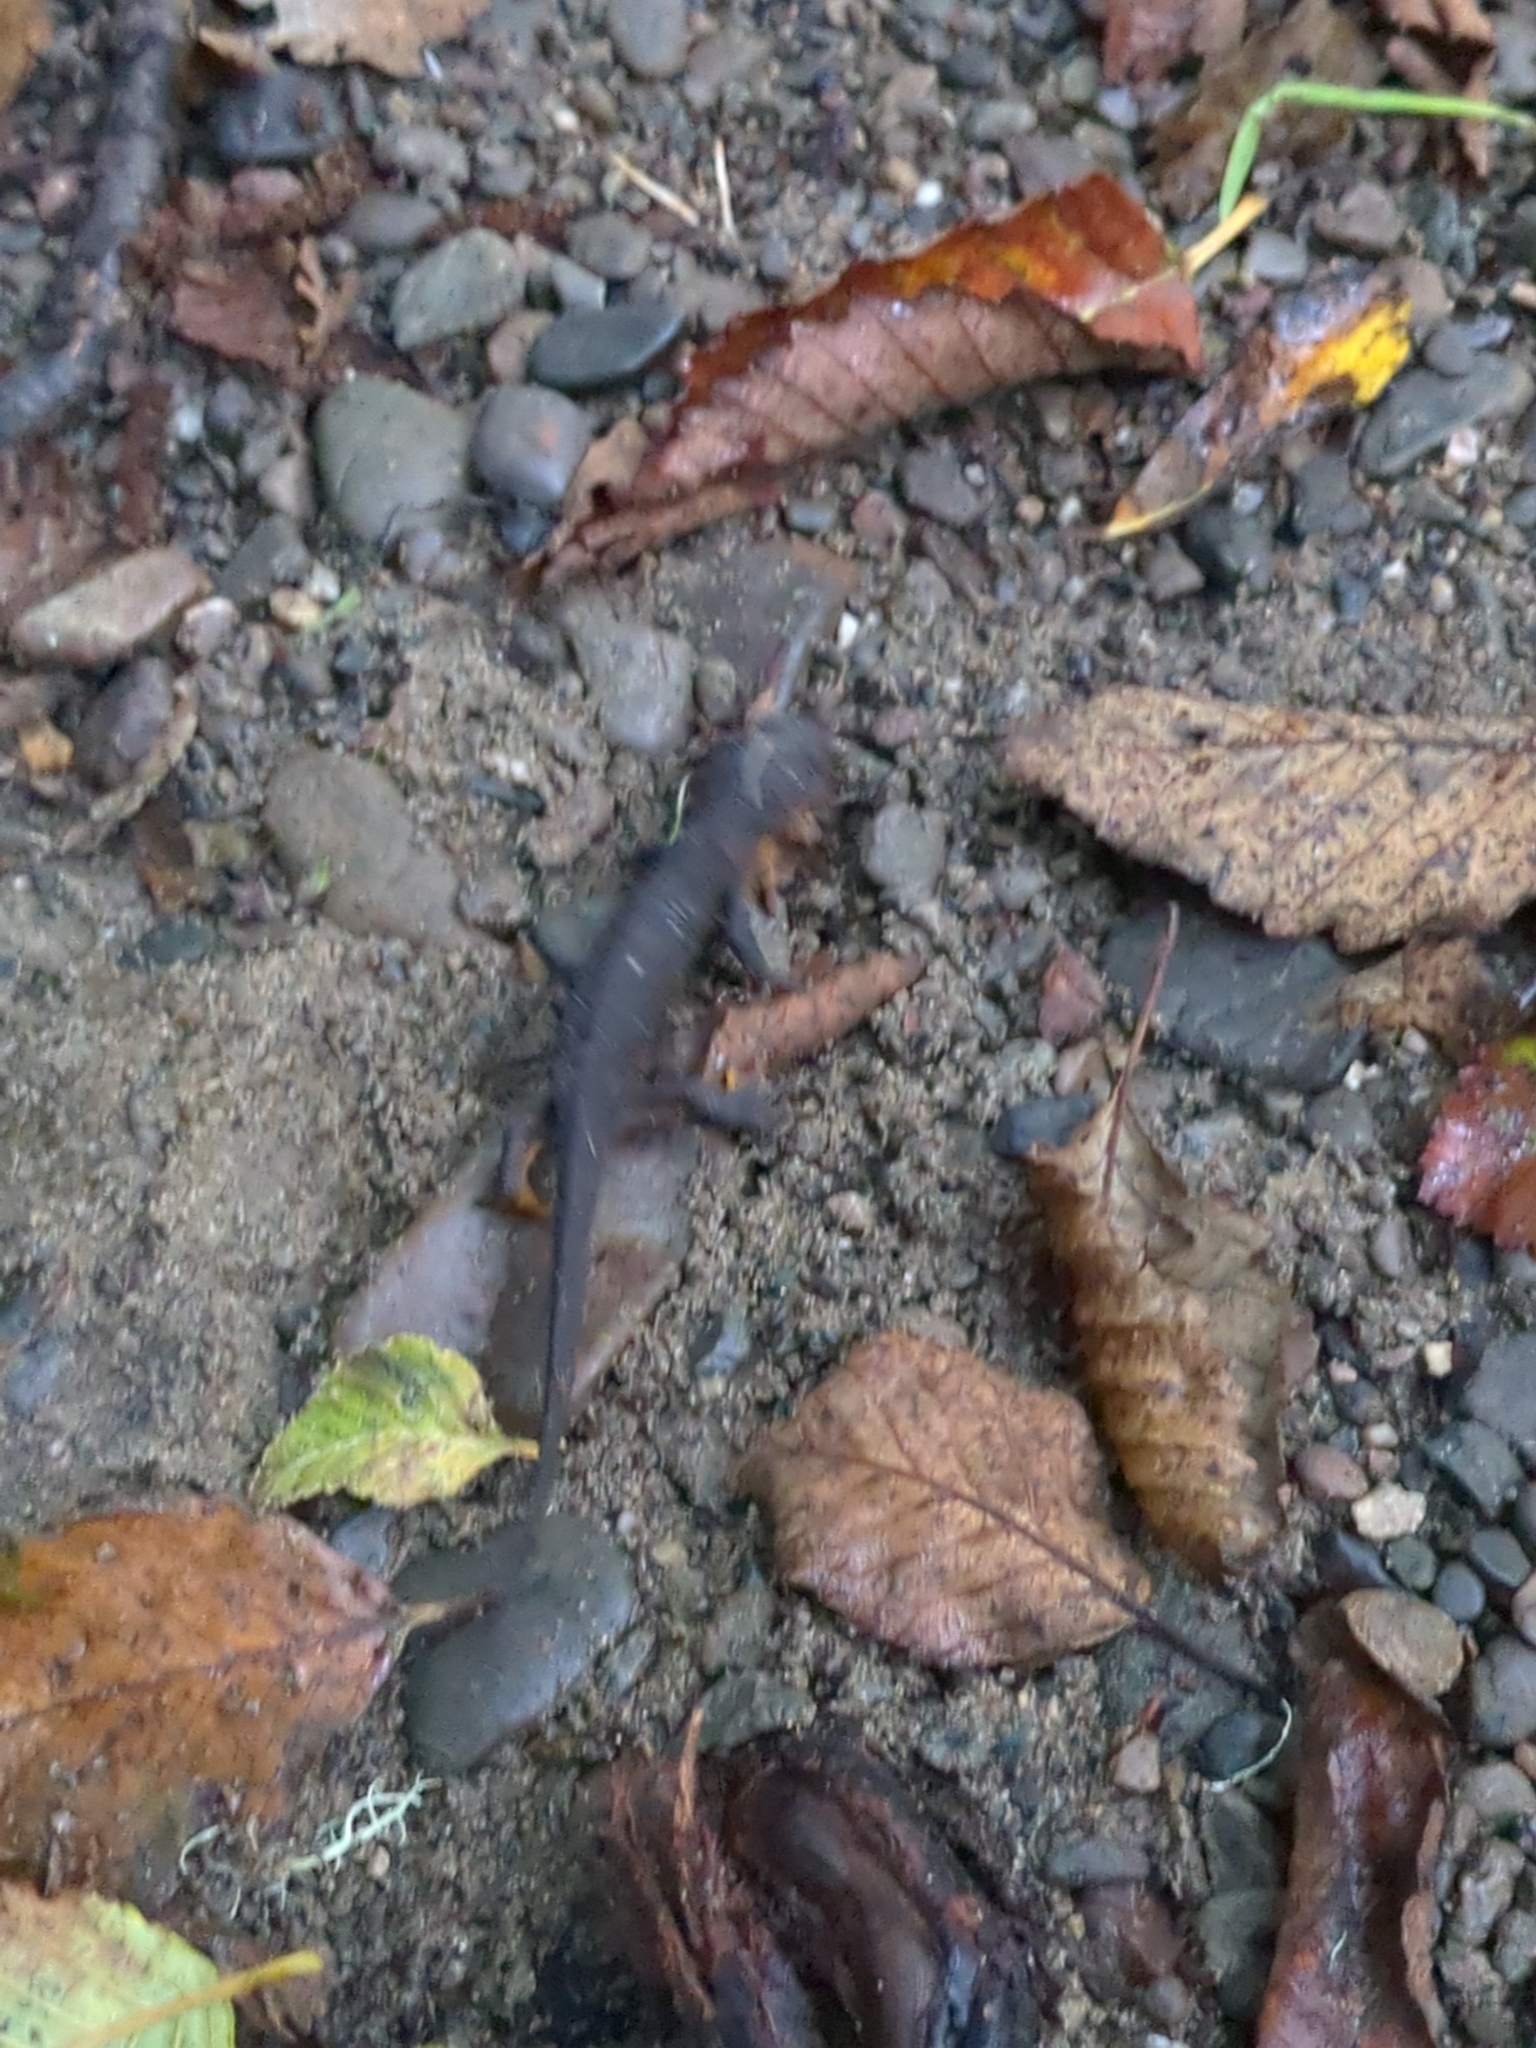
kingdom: Animalia
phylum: Chordata
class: Amphibia
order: Caudata
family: Salamandridae
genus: Taricha
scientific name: Taricha granulosa
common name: Roughskin newt
